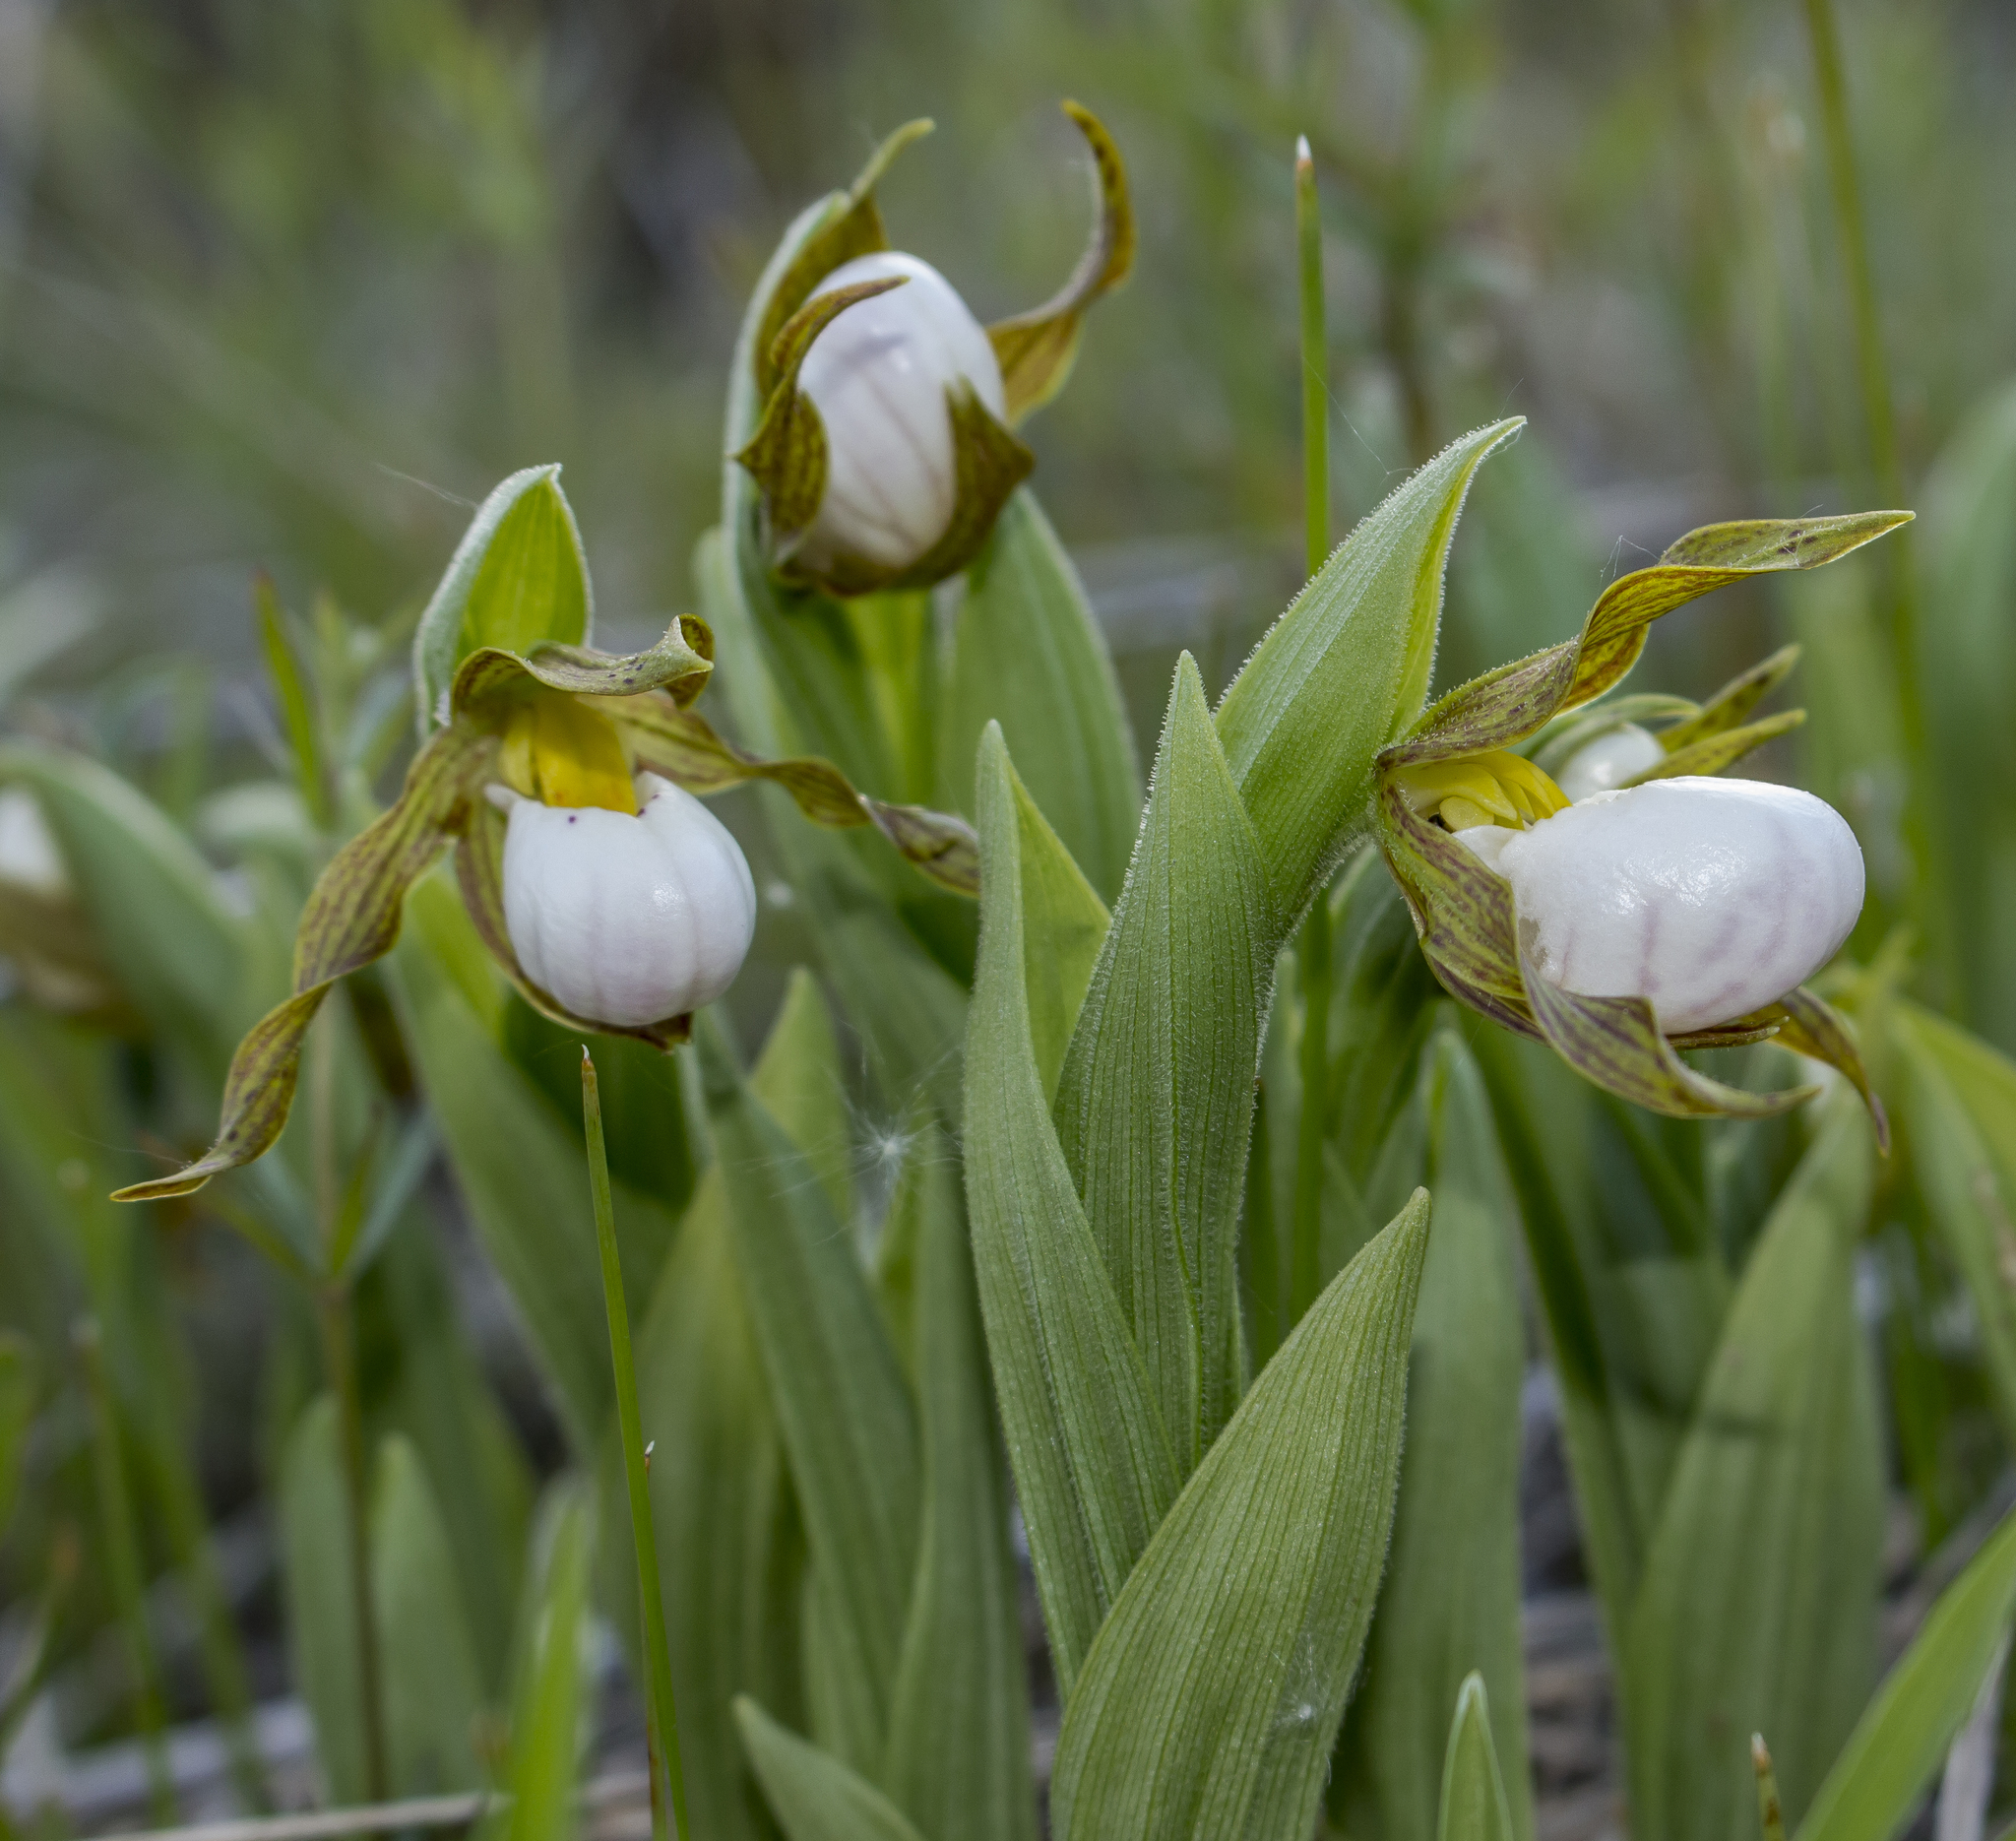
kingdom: Plantae
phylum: Tracheophyta
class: Liliopsida
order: Asparagales
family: Orchidaceae
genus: Cypripedium
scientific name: Cypripedium candidum
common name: White lady's-slipper
